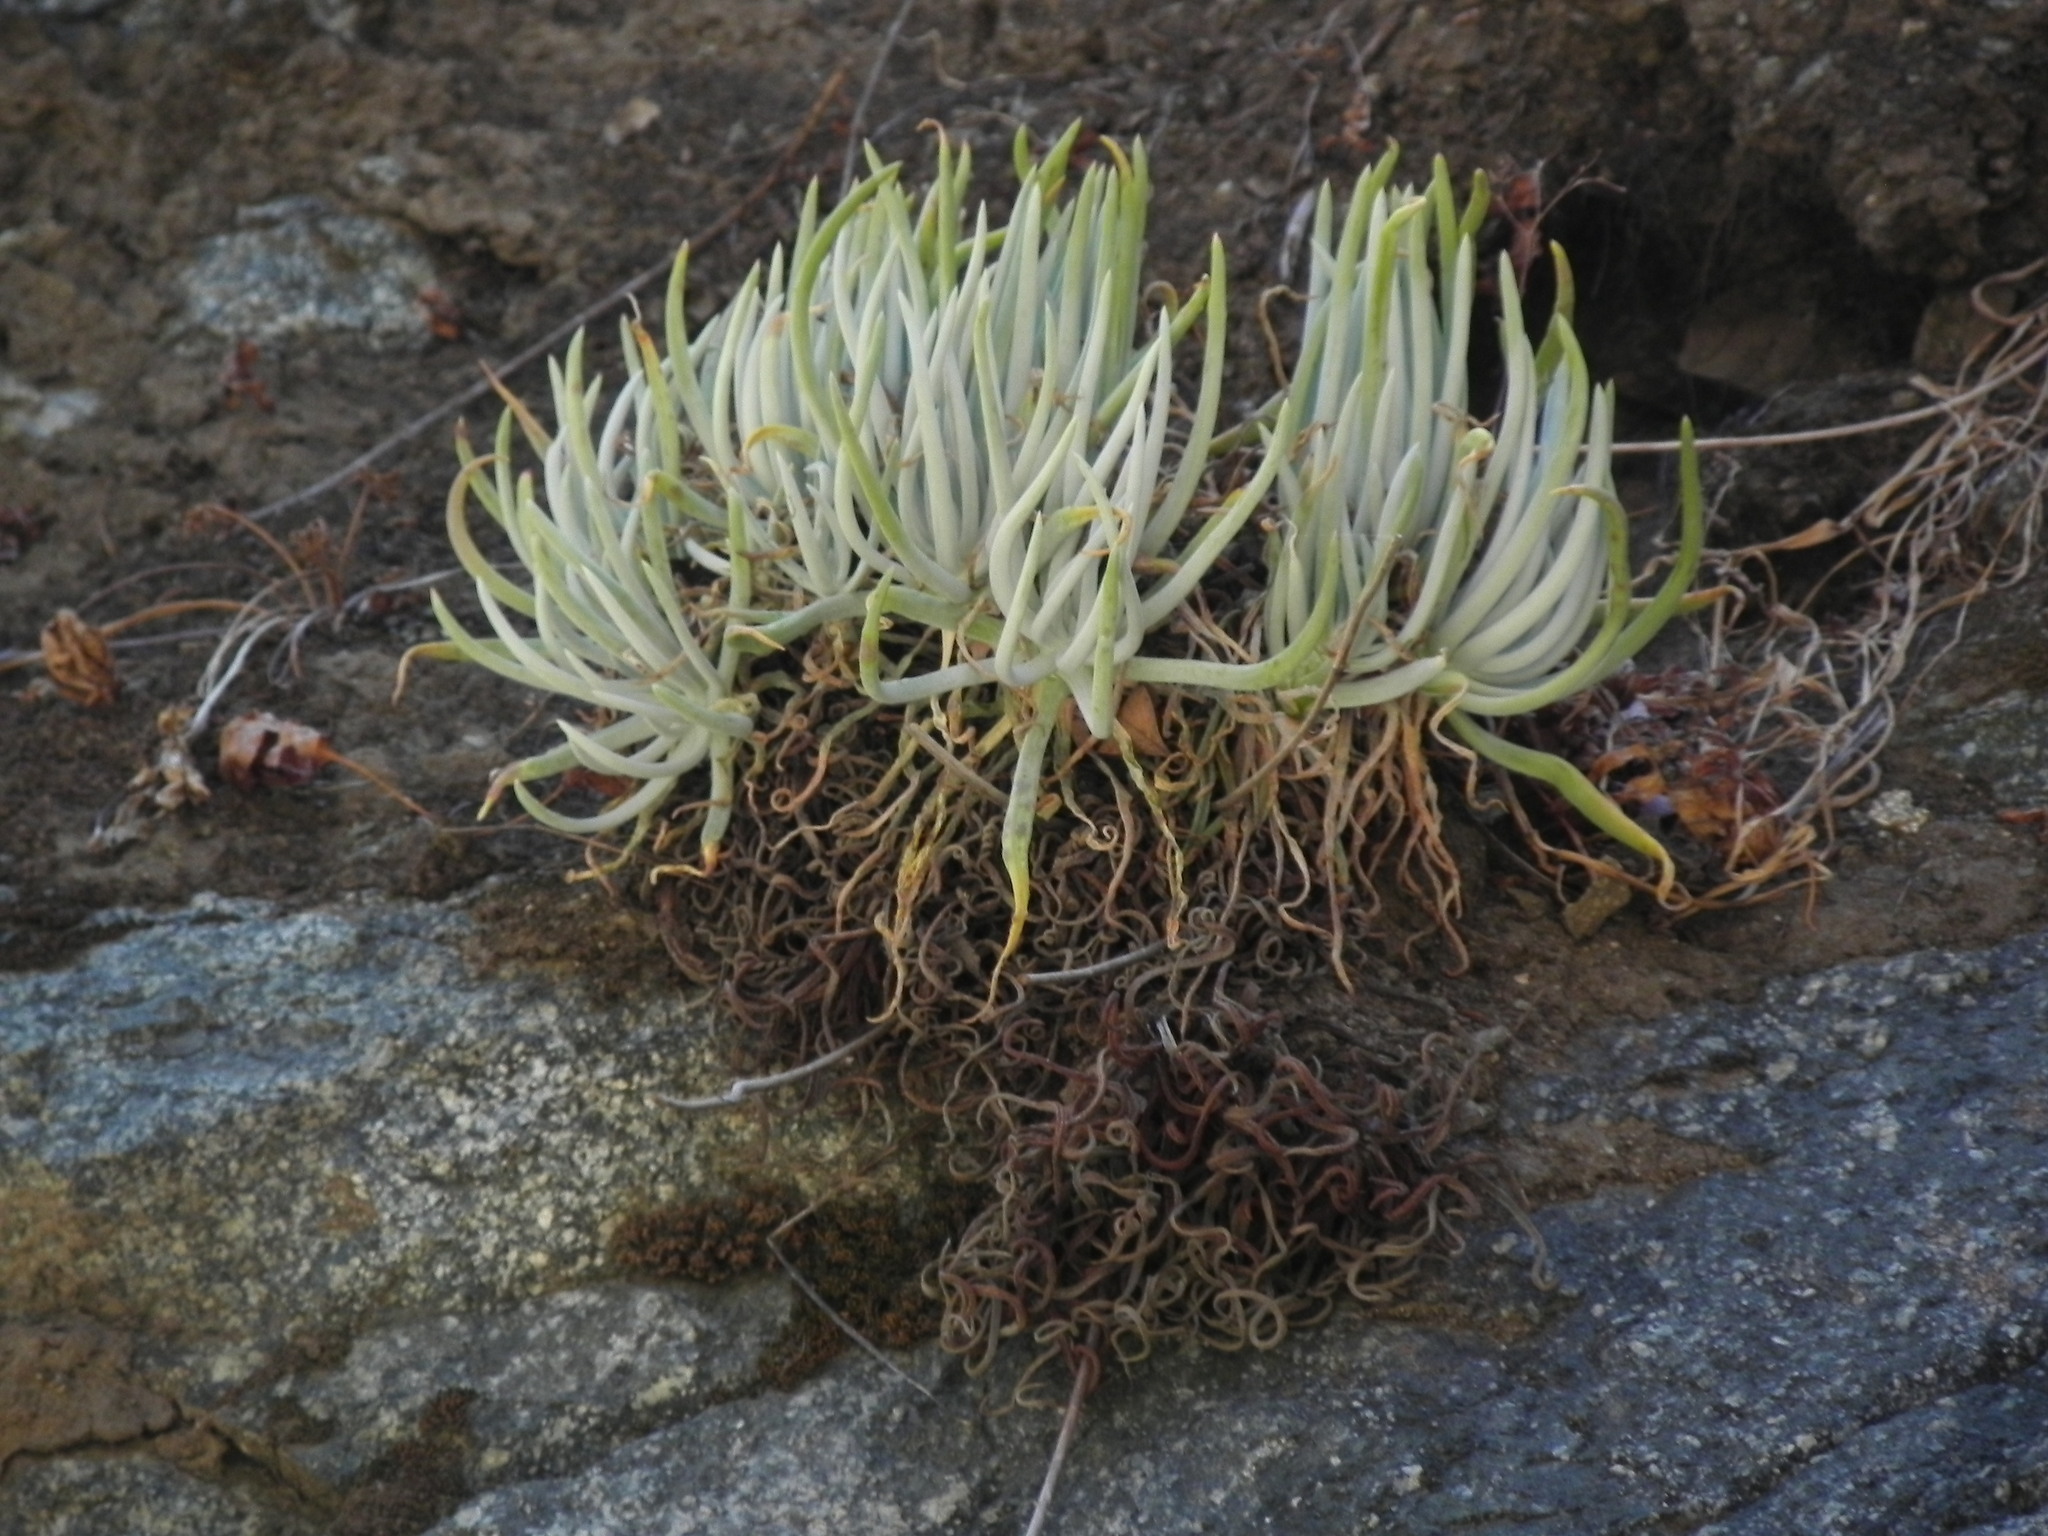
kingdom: Plantae
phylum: Tracheophyta
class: Magnoliopsida
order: Saxifragales
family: Crassulaceae
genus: Dudleya
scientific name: Dudleya densiflora
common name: San gabriel mountains dudleya
